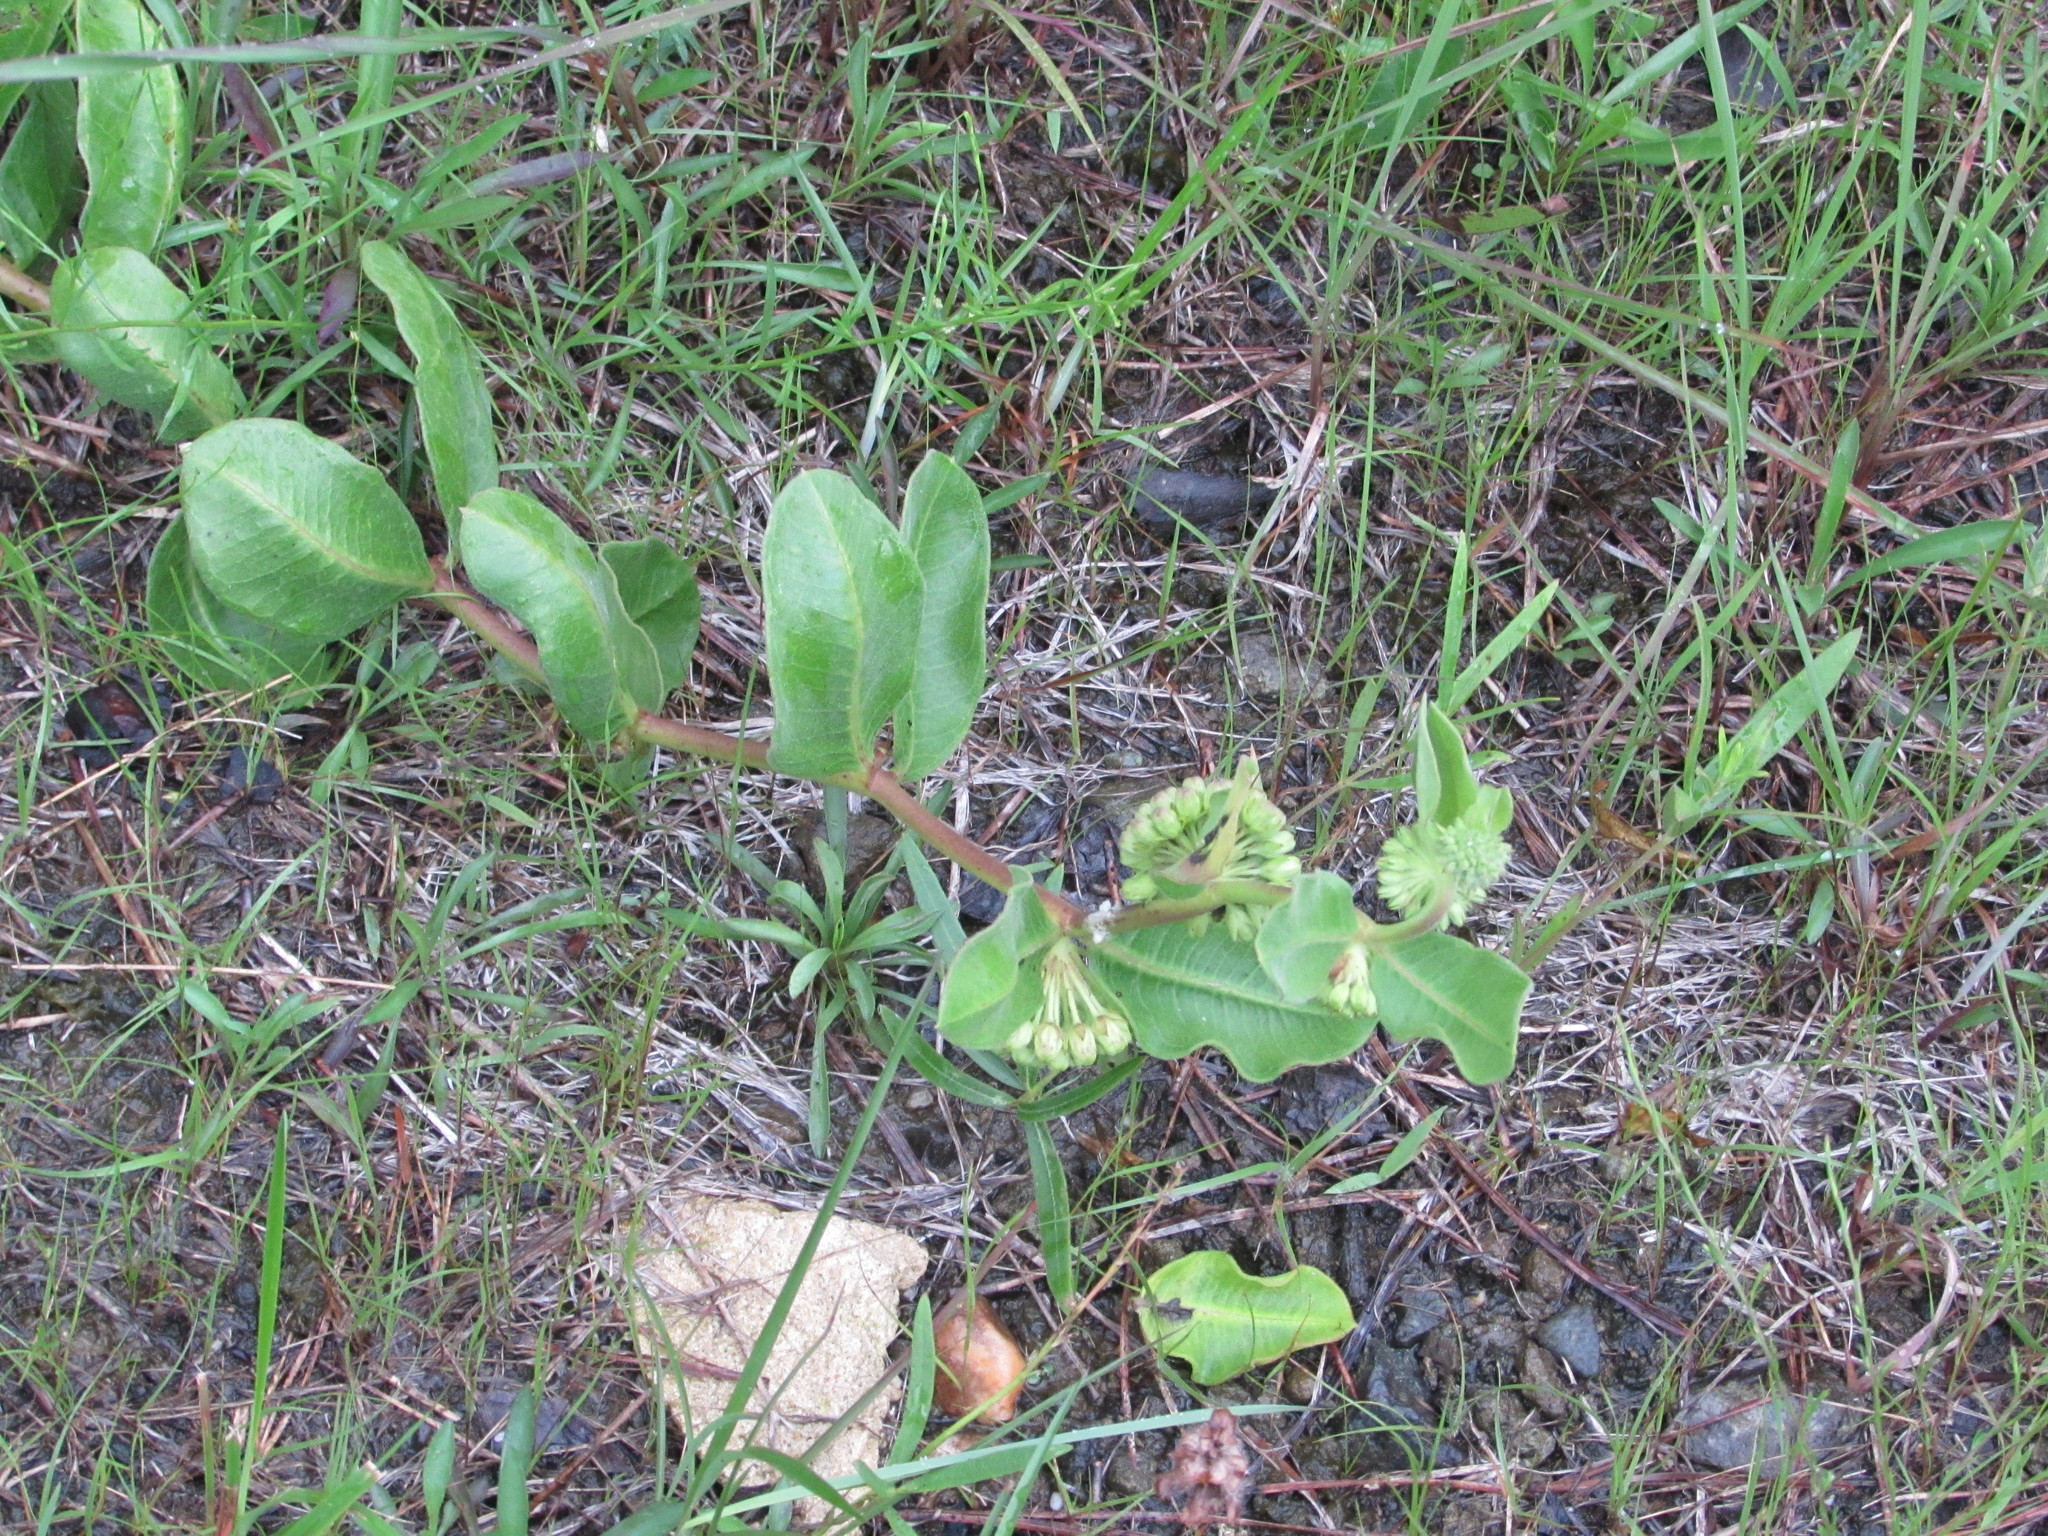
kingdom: Plantae
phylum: Tracheophyta
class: Magnoliopsida
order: Gentianales
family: Apocynaceae
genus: Asclepias
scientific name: Asclepias viridiflora
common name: Green comet milkweed
